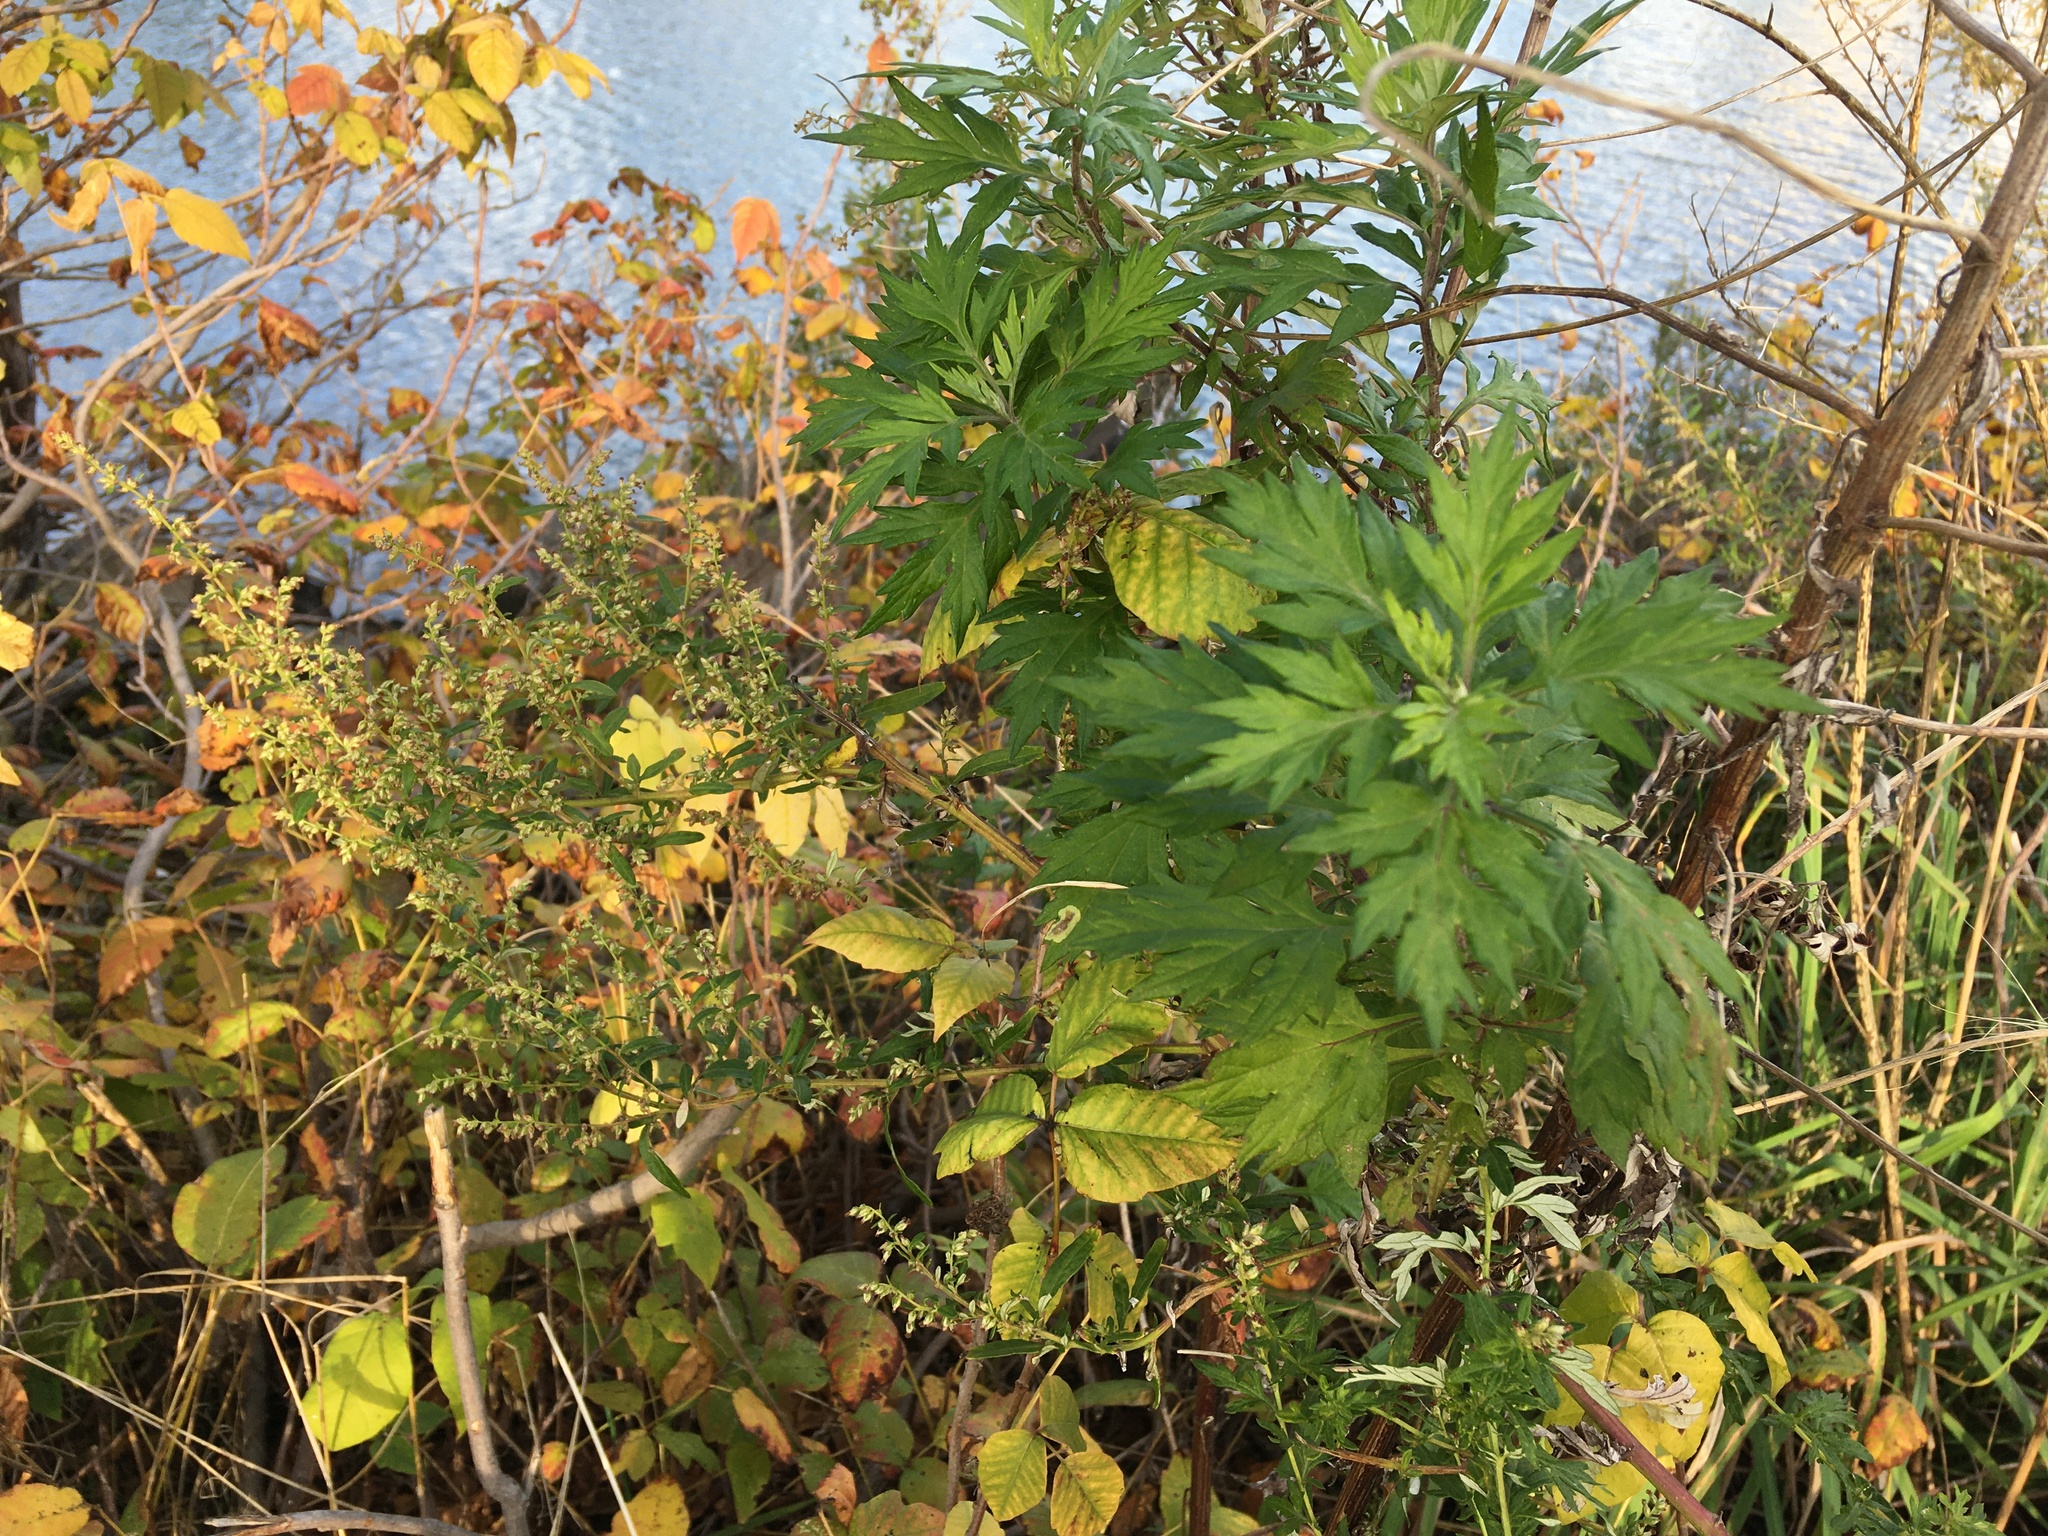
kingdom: Plantae
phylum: Tracheophyta
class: Magnoliopsida
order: Asterales
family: Asteraceae
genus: Artemisia
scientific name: Artemisia vulgaris
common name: Mugwort
